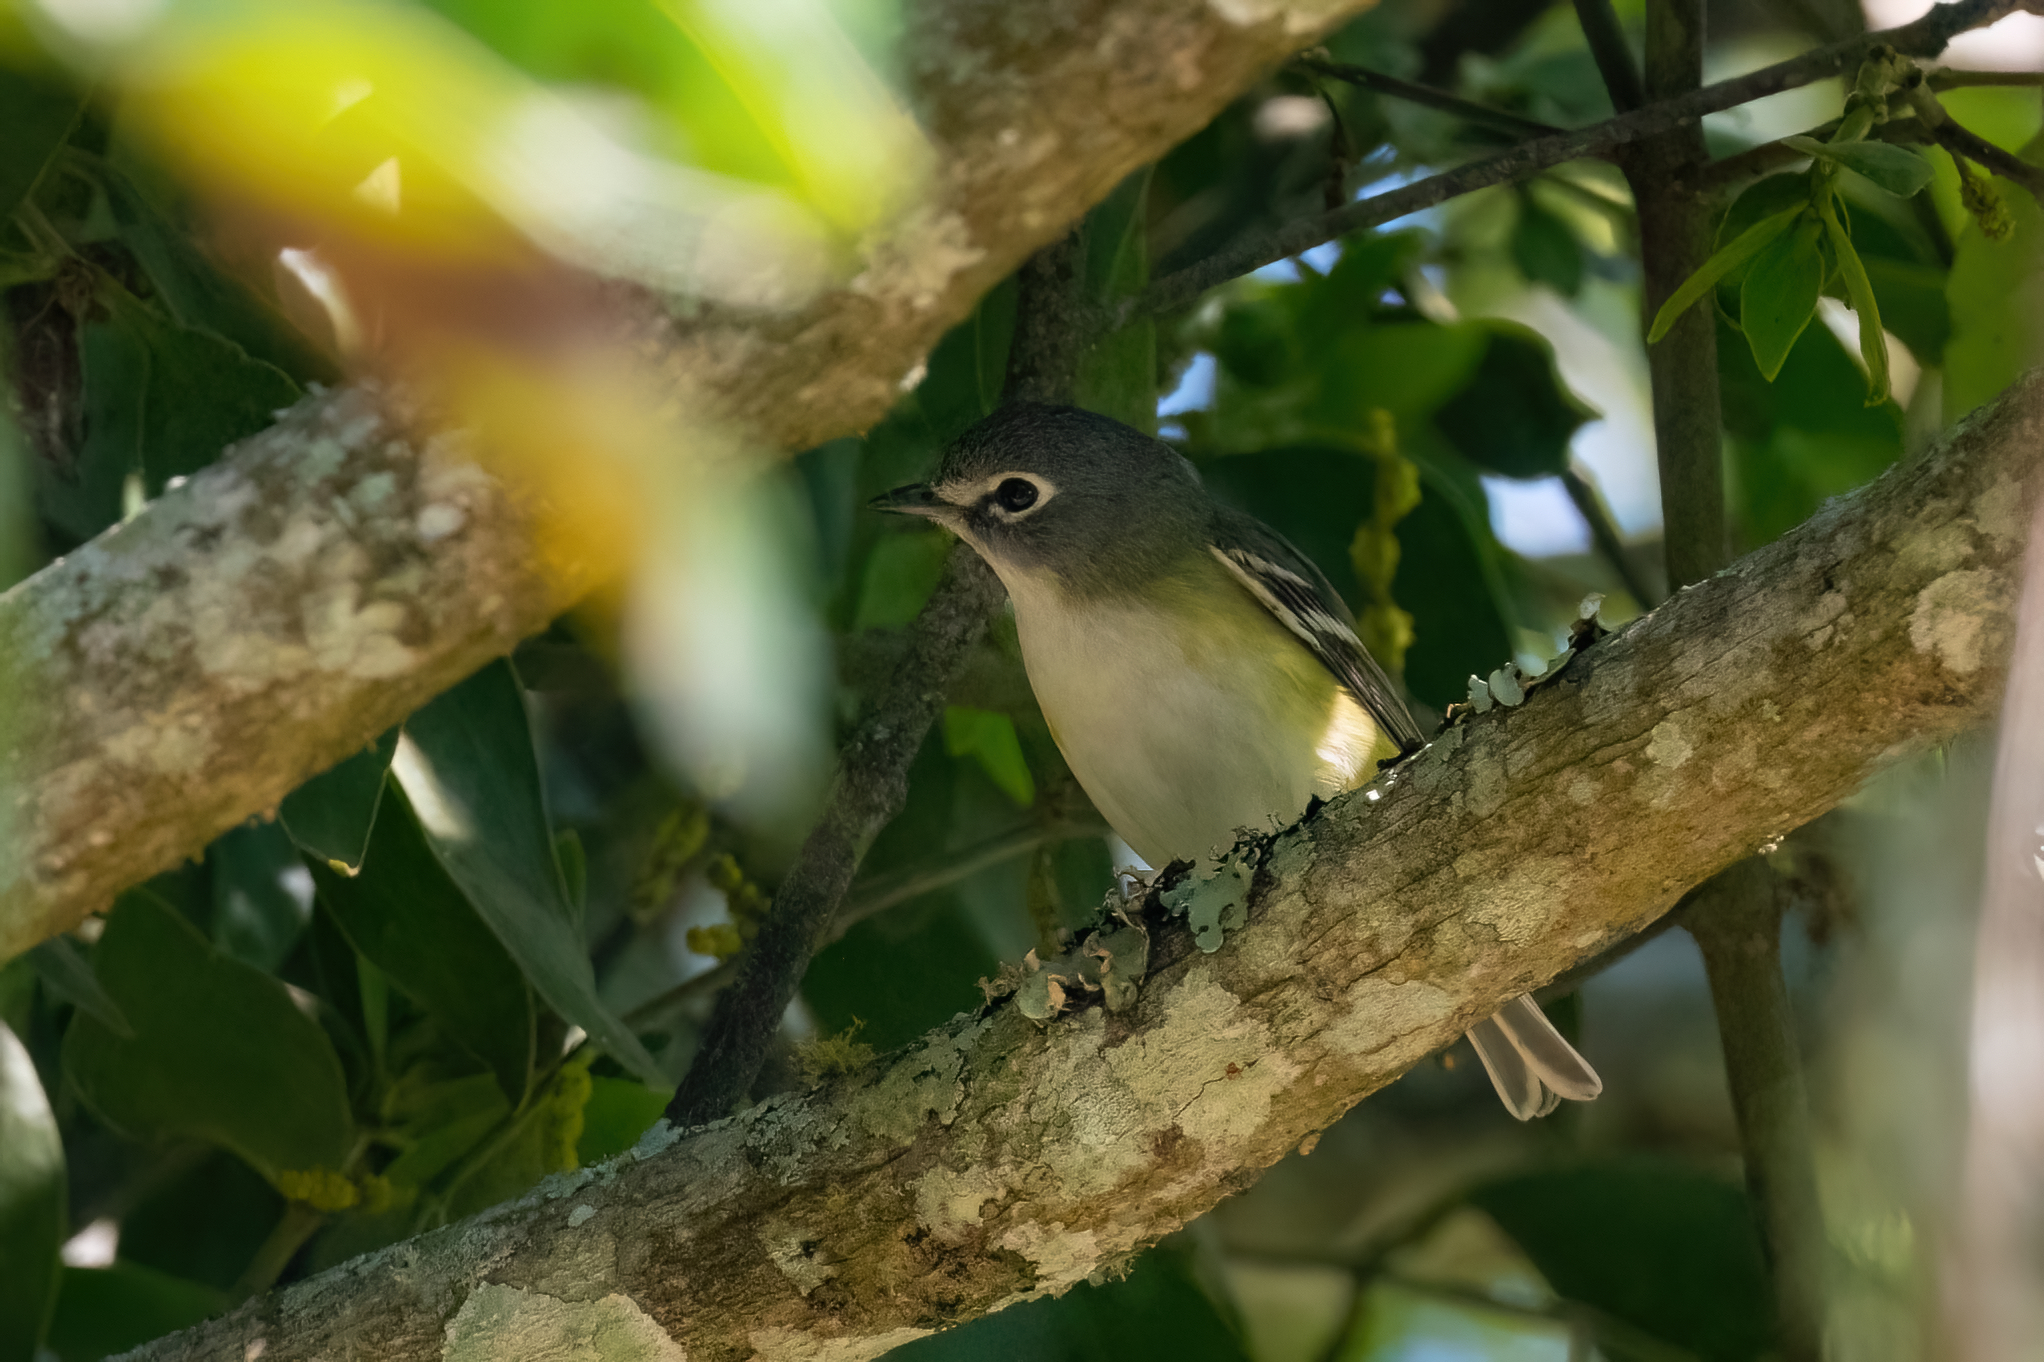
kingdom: Animalia
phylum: Chordata
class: Aves
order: Passeriformes
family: Vireonidae
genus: Vireo
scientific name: Vireo solitarius
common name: Blue-headed vireo
